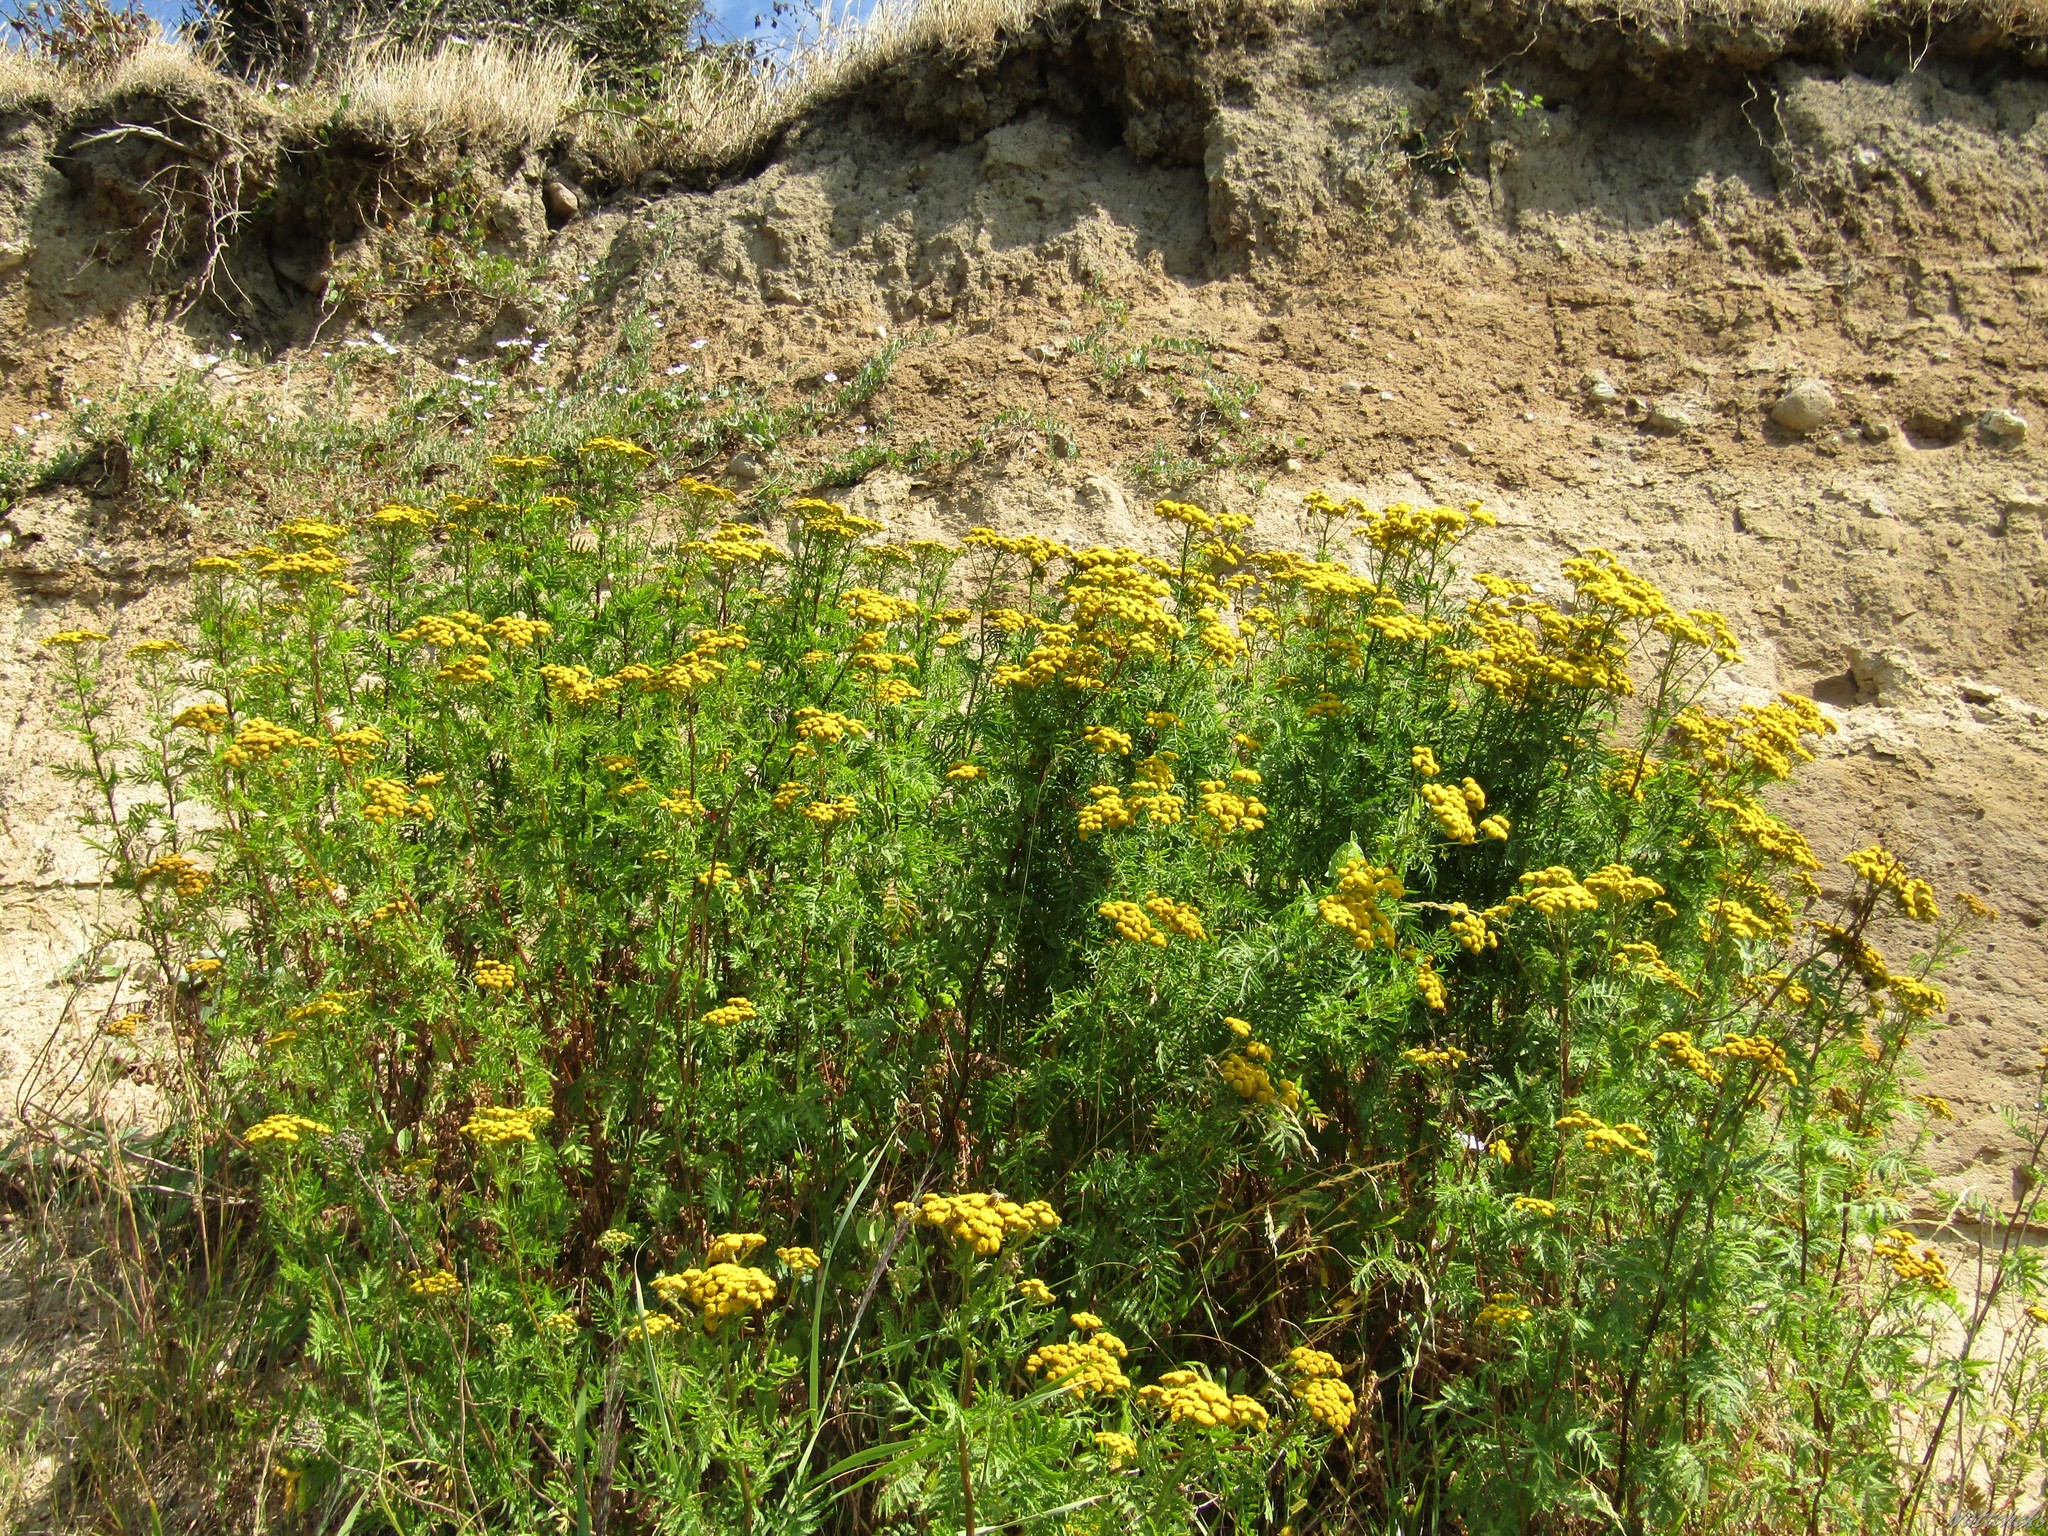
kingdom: Plantae
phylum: Tracheophyta
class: Magnoliopsida
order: Asterales
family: Asteraceae
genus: Tanacetum
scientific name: Tanacetum vulgare
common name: Common tansy
